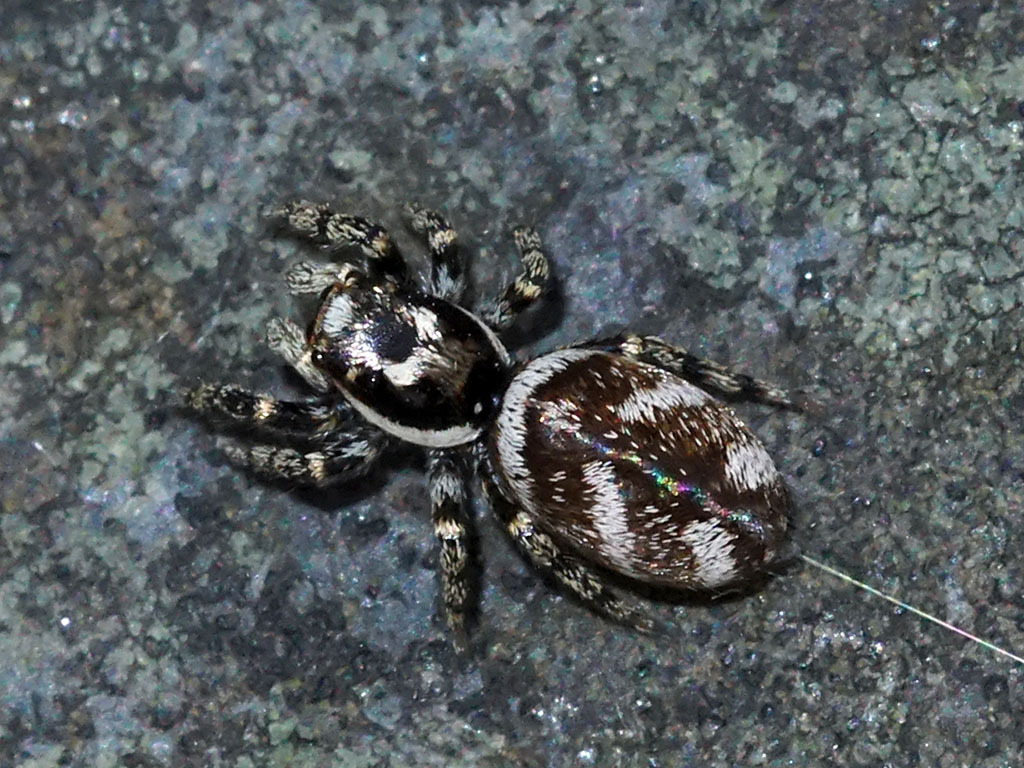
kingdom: Animalia
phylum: Arthropoda
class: Arachnida
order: Araneae
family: Salticidae
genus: Salticus
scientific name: Salticus scenicus
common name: Zebra jumper
